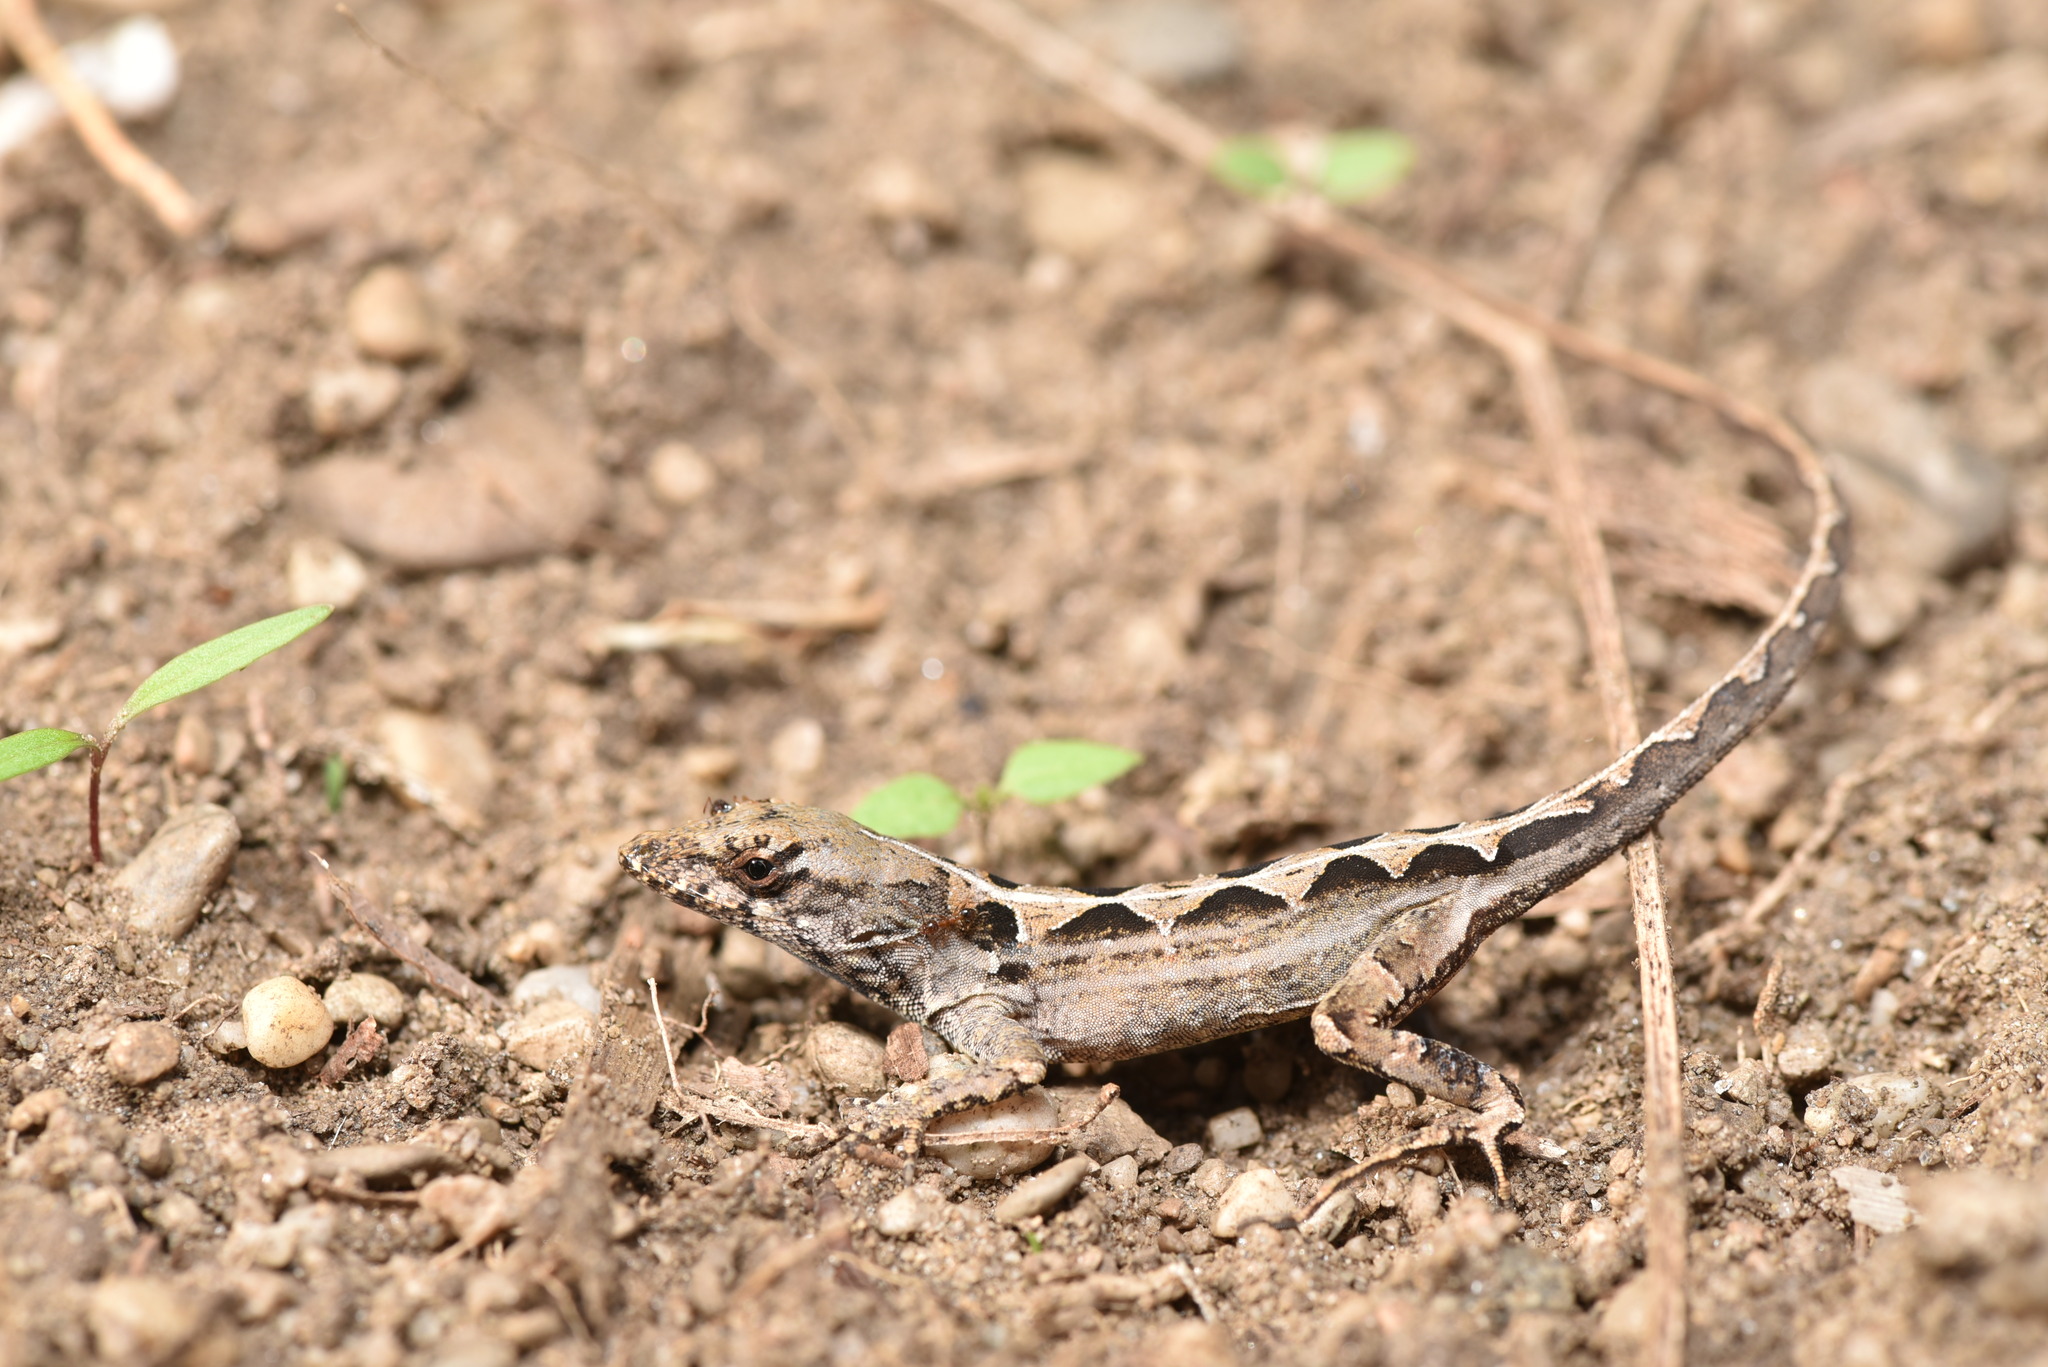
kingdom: Animalia
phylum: Chordata
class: Squamata
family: Dactyloidae
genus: Anolis
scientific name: Anolis sagrei
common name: Brown anole
